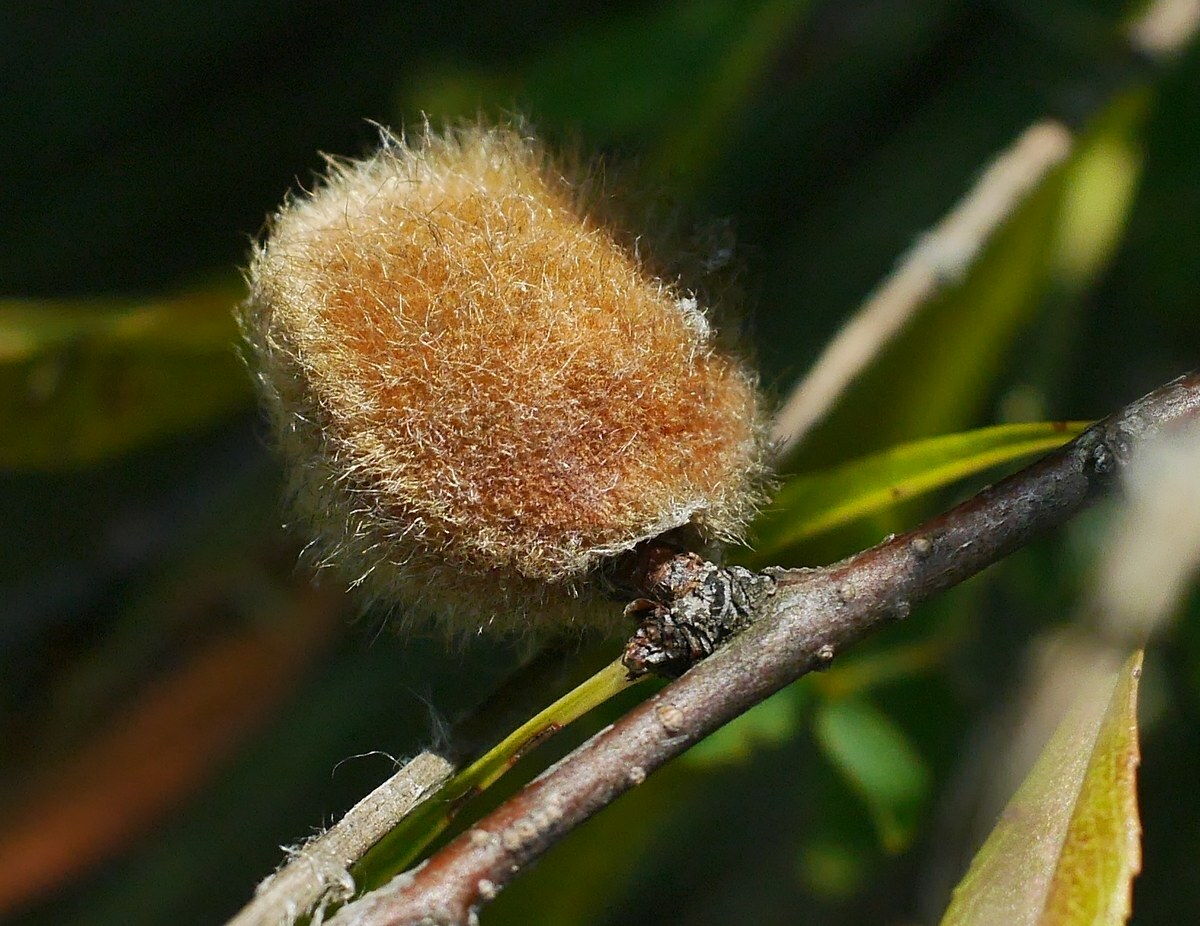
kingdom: Plantae
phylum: Tracheophyta
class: Magnoliopsida
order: Rosales
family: Rosaceae
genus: Prunus
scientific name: Prunus tenella
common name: Dwarf russian almond
